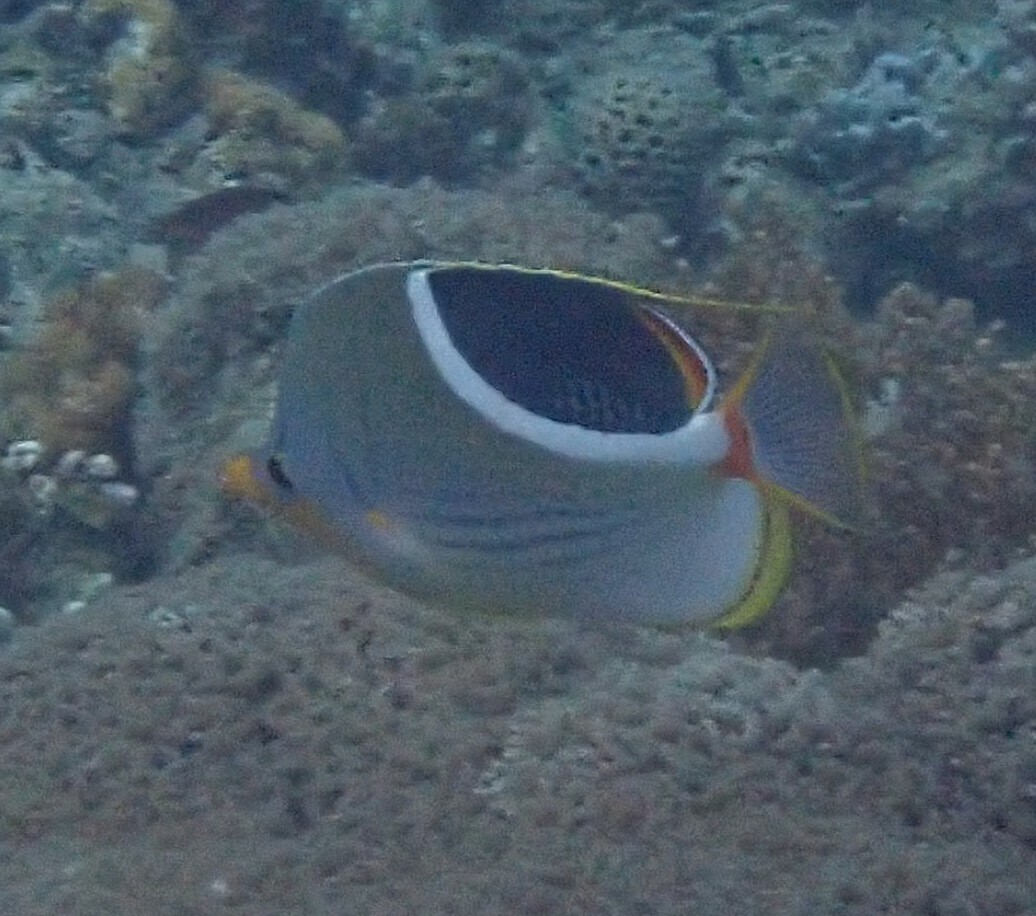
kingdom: Animalia
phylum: Chordata
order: Perciformes
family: Chaetodontidae
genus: Chaetodon
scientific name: Chaetodon ephippium
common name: Saddled butterflyfish
